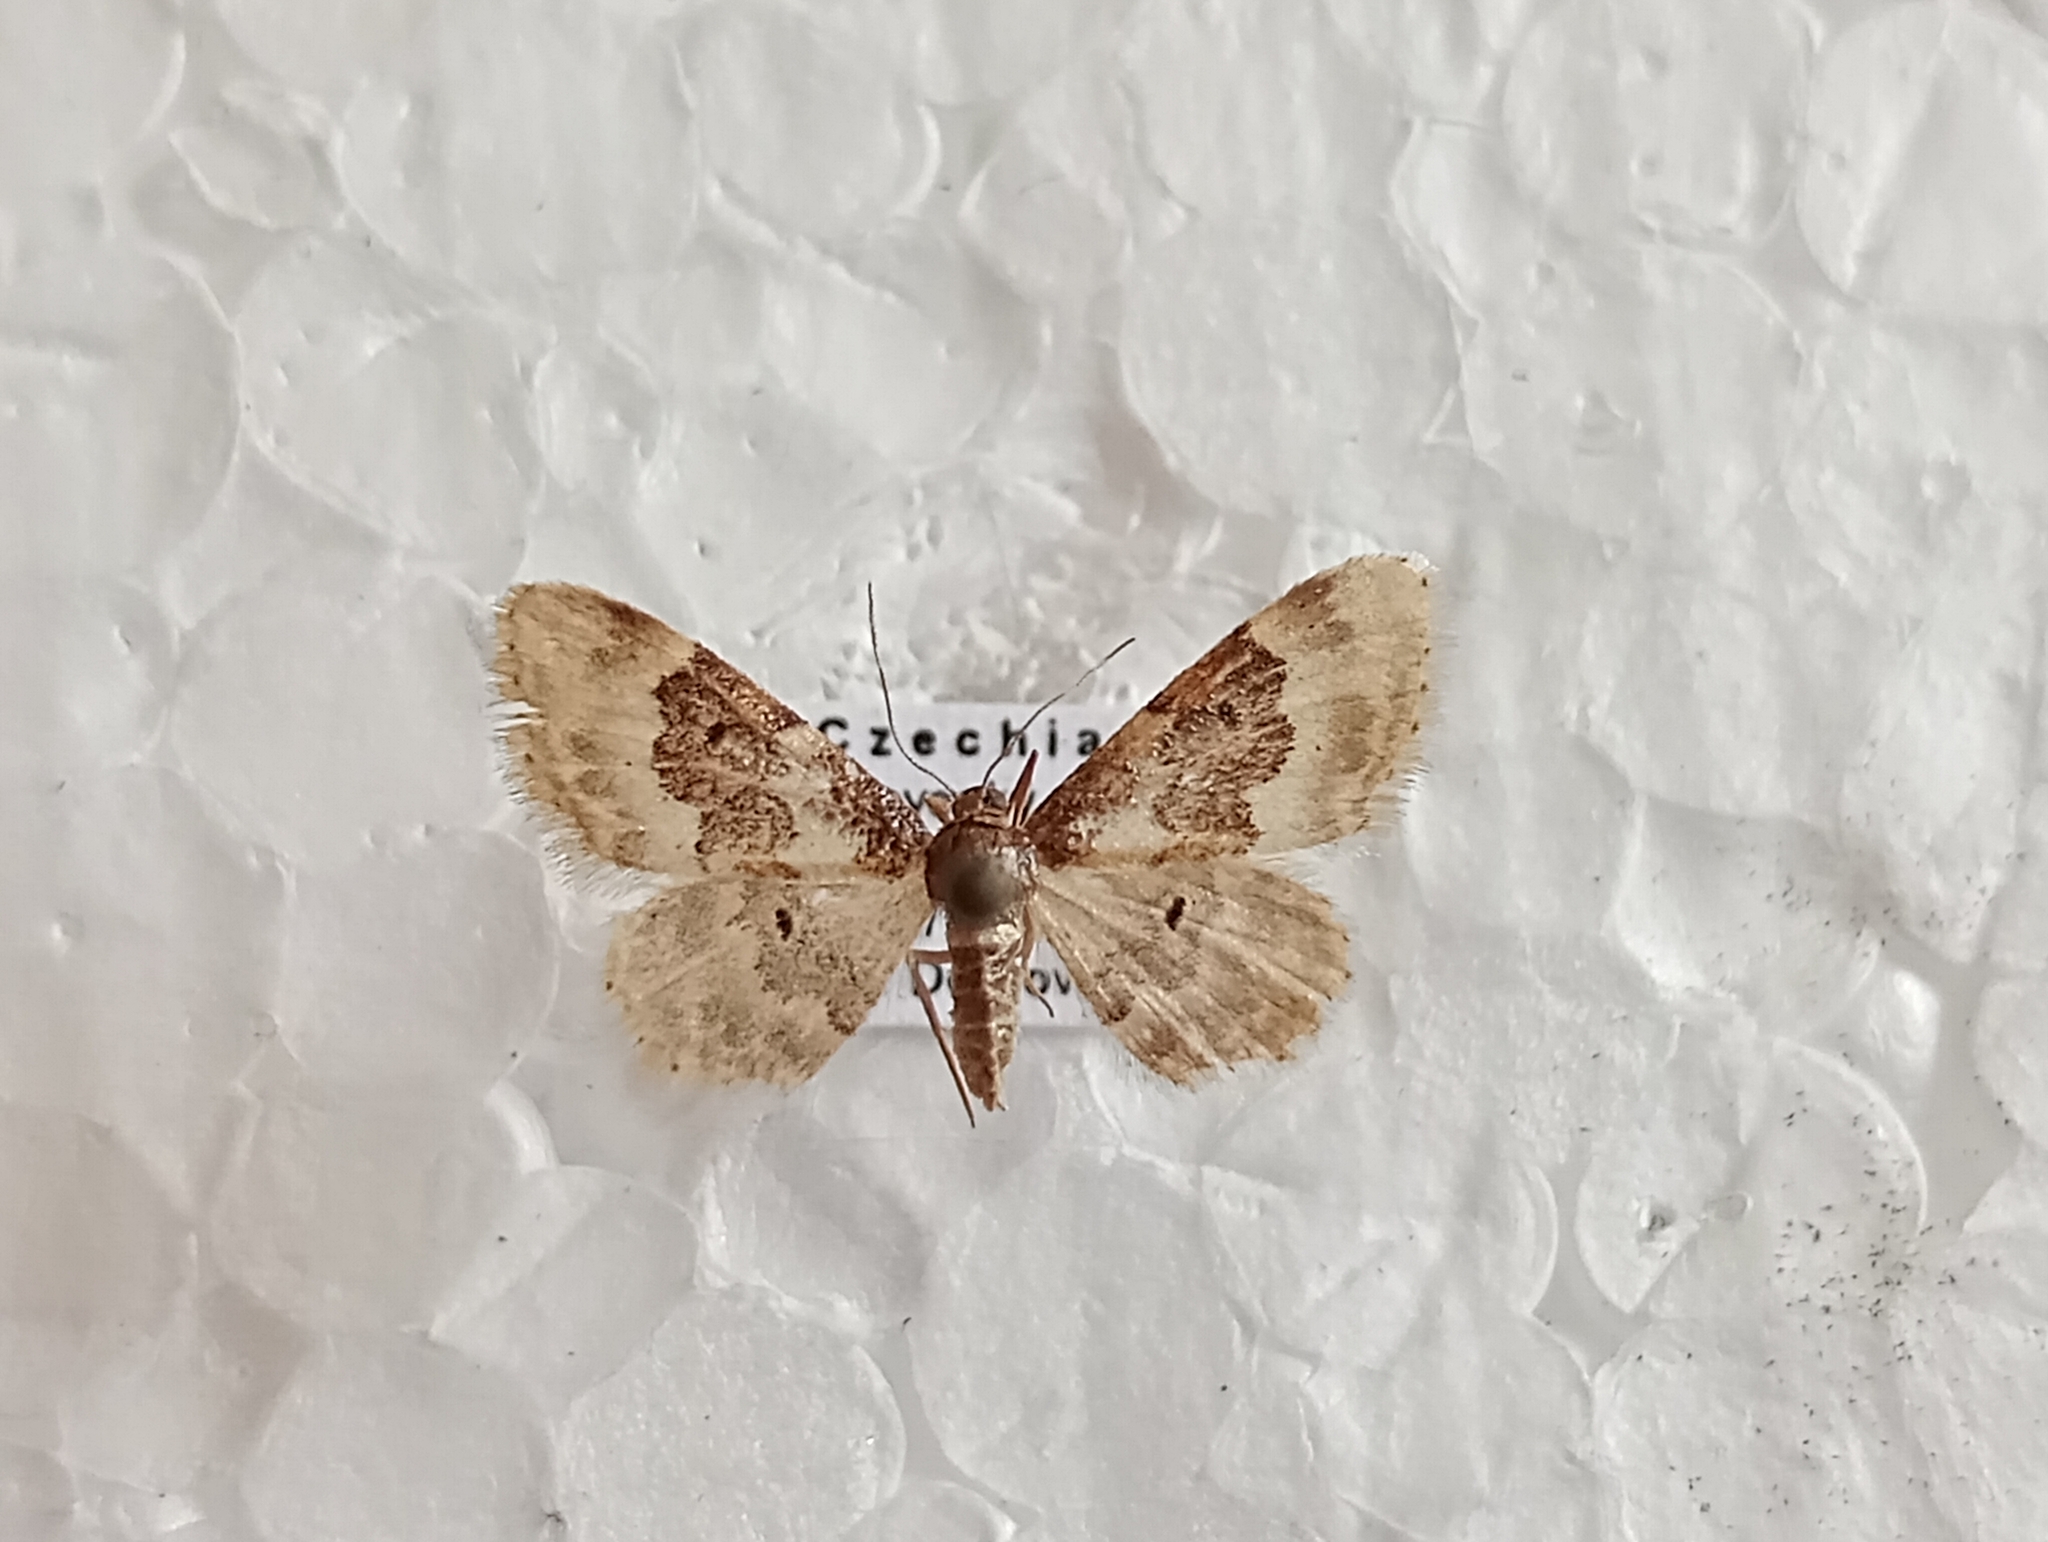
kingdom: Animalia
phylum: Arthropoda
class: Insecta
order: Lepidoptera
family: Geometridae
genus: Idaea
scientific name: Idaea rusticata
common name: Least carpet
